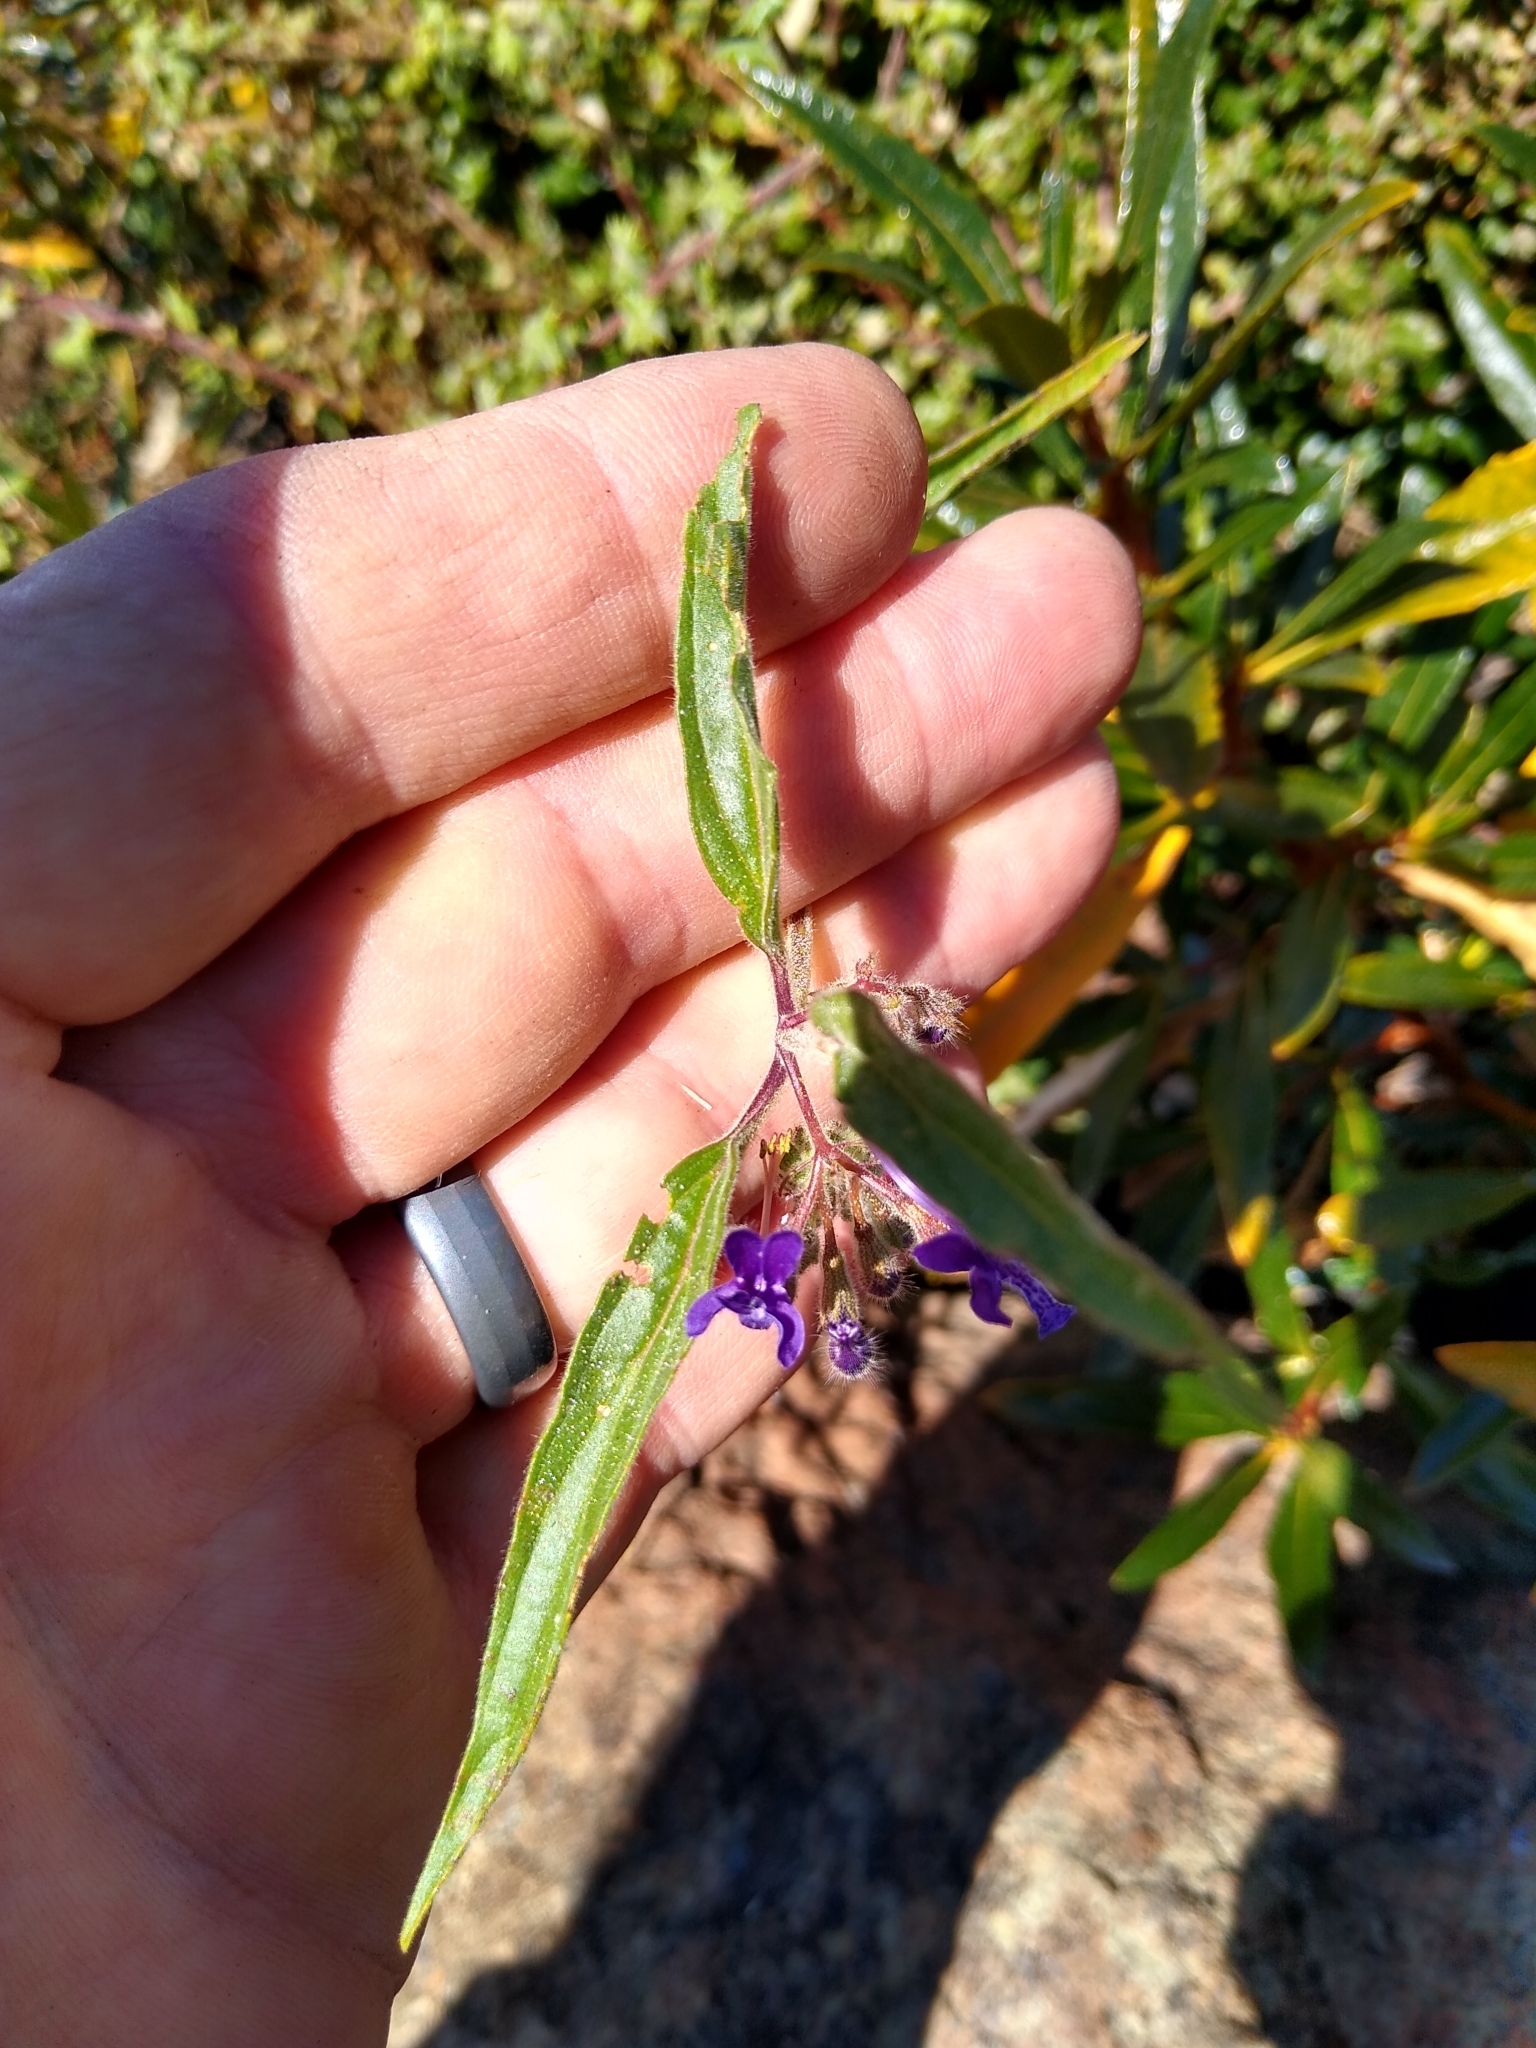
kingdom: Plantae
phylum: Tracheophyta
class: Magnoliopsida
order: Lamiales
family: Lamiaceae
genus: Trichostema
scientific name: Trichostema laxum
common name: Turpentine weed
